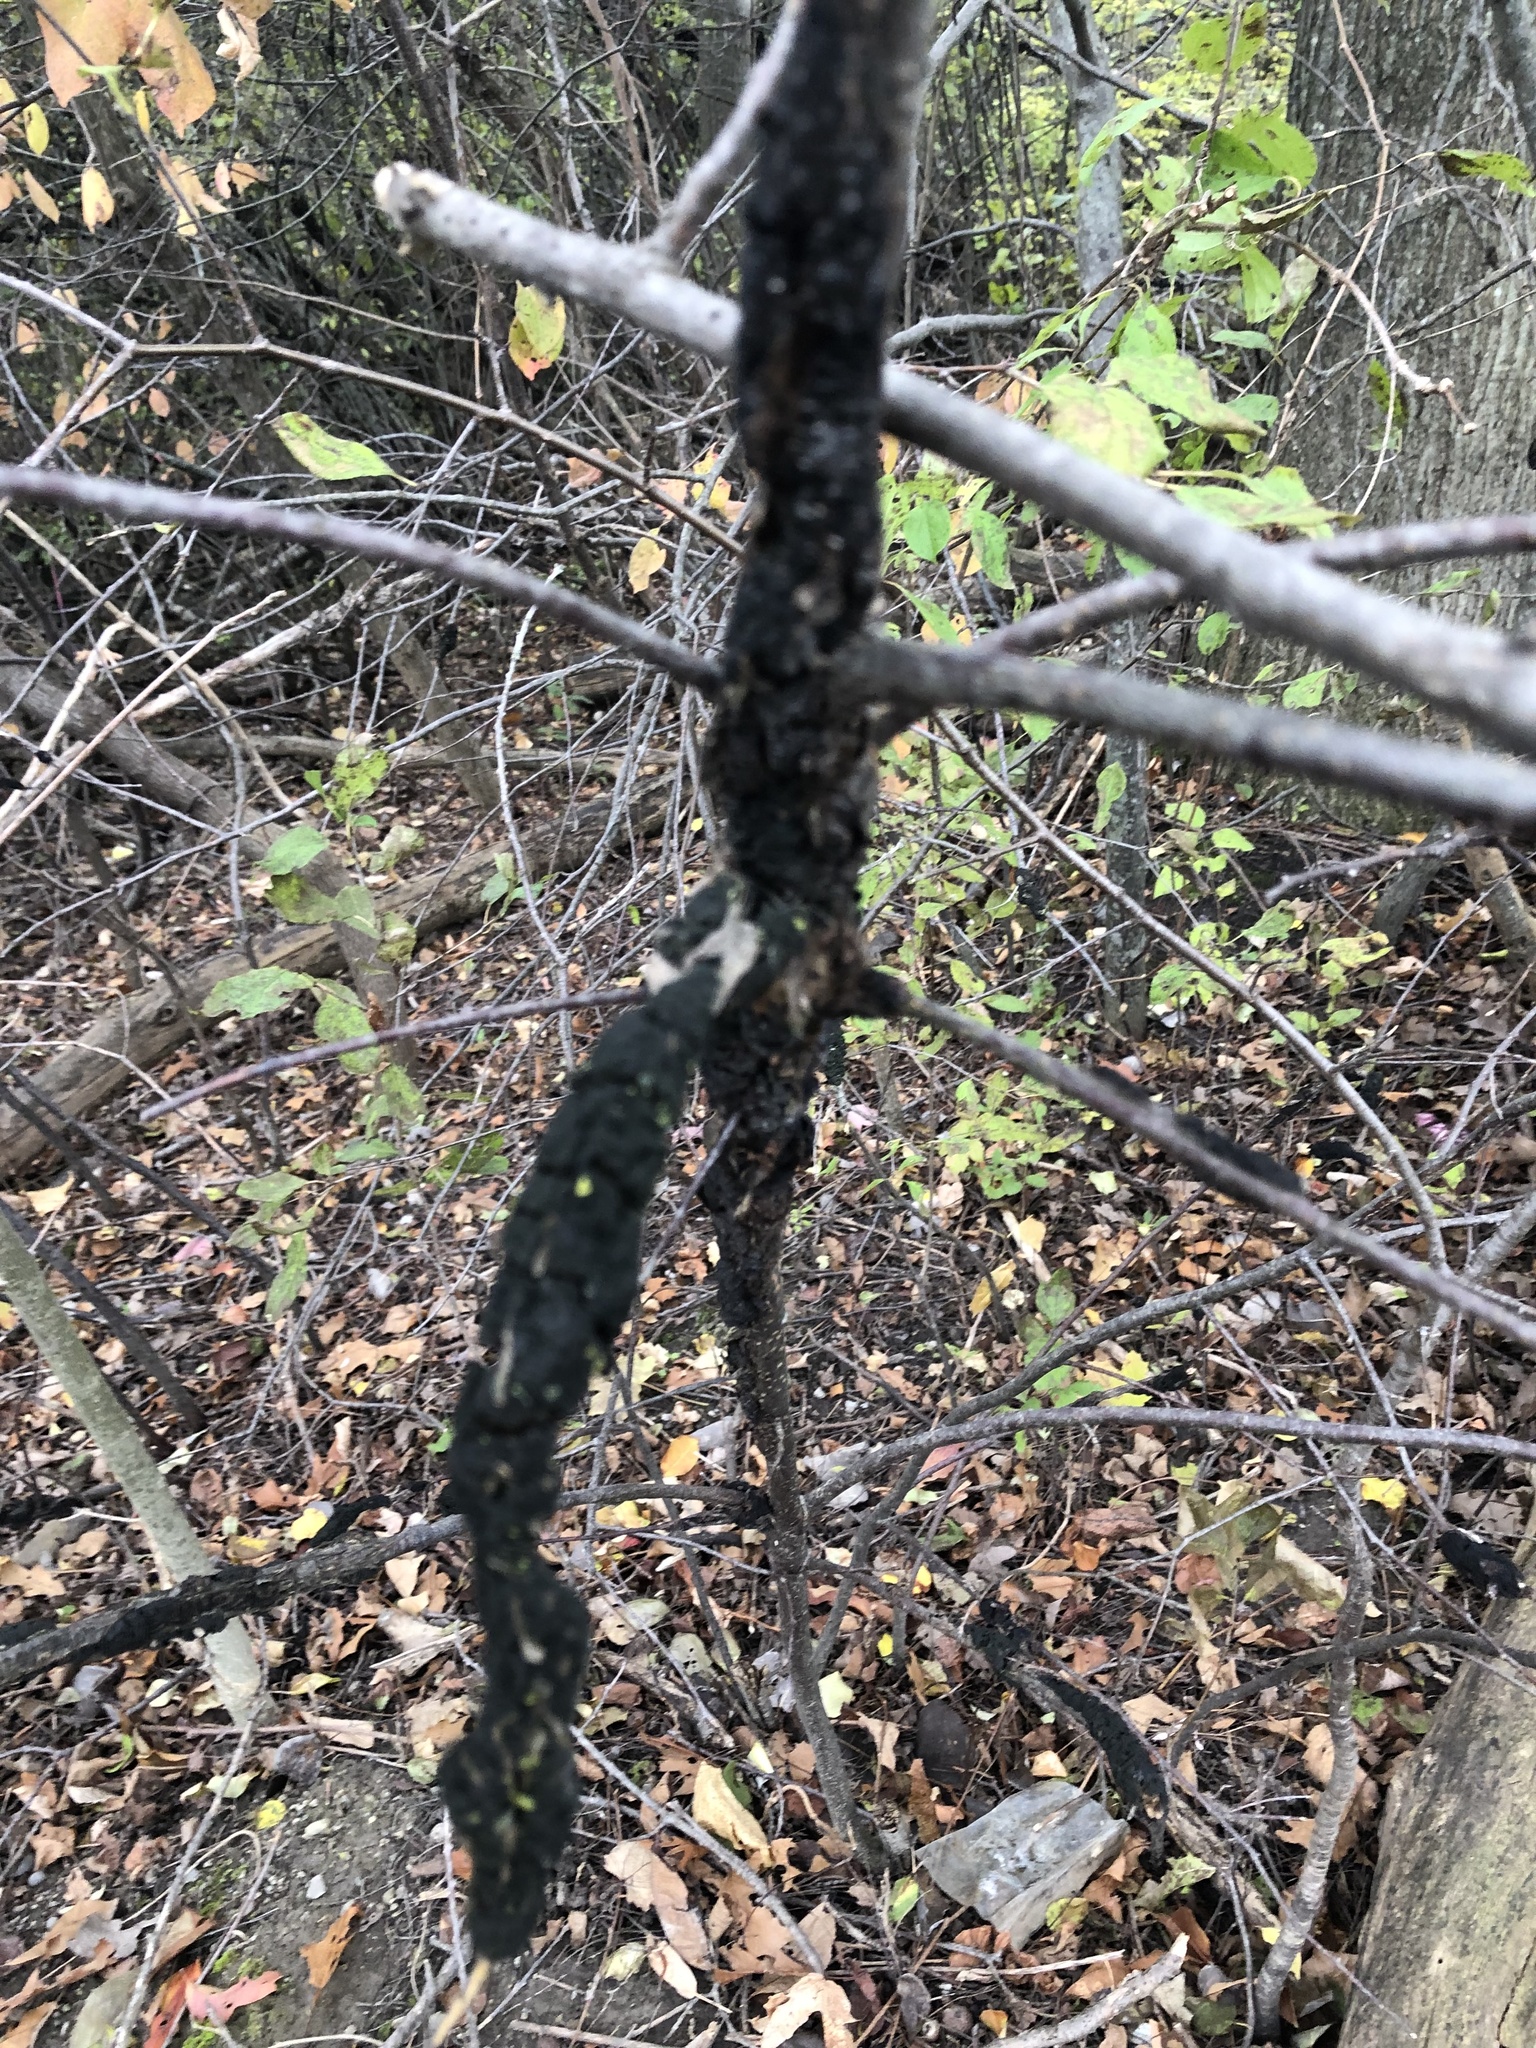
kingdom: Fungi
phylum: Ascomycota
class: Dothideomycetes
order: Venturiales
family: Venturiaceae
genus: Apiosporina
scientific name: Apiosporina morbosa
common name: Black knot
